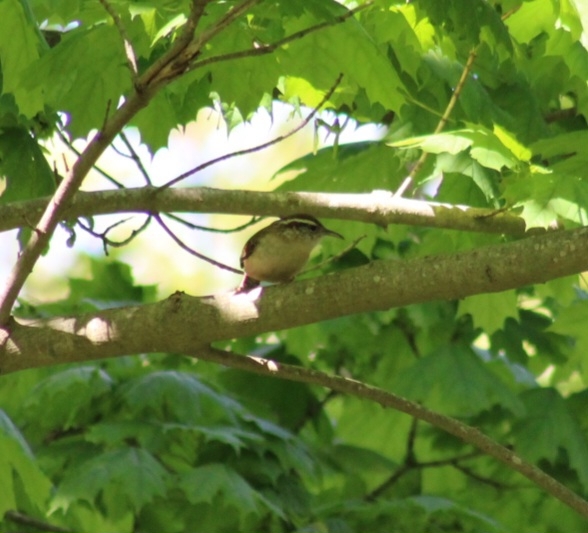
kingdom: Animalia
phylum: Chordata
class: Aves
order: Passeriformes
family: Troglodytidae
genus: Thryothorus
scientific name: Thryothorus ludovicianus
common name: Carolina wren
